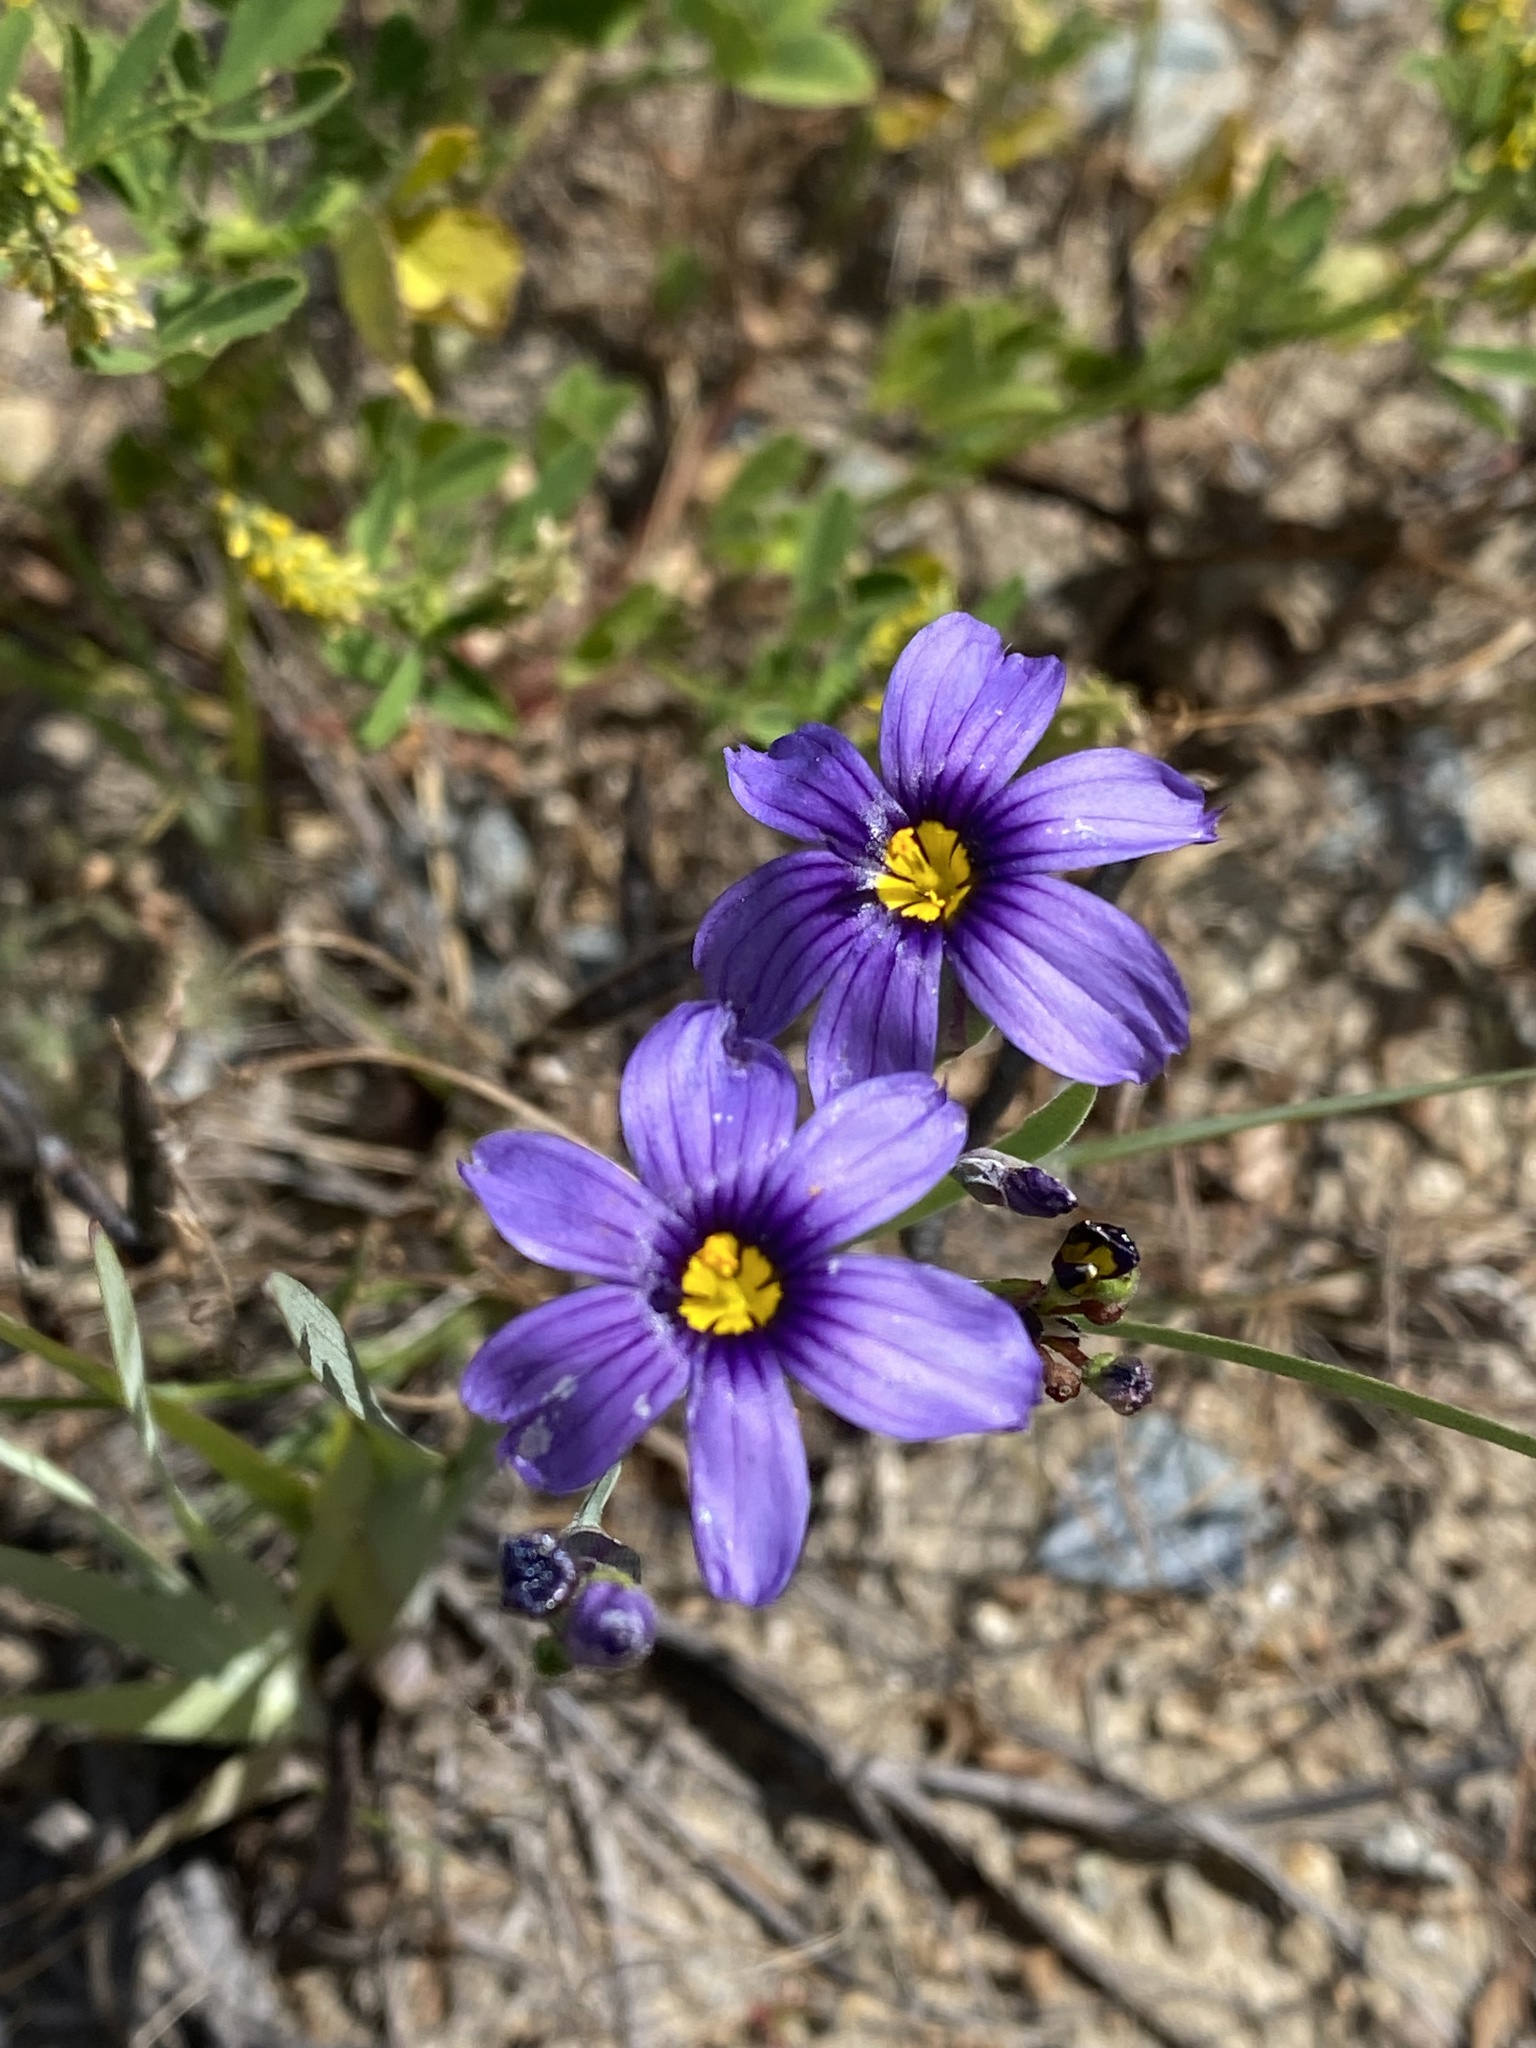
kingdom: Plantae
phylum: Tracheophyta
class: Liliopsida
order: Asparagales
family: Iridaceae
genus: Sisyrinchium
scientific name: Sisyrinchium bellum
